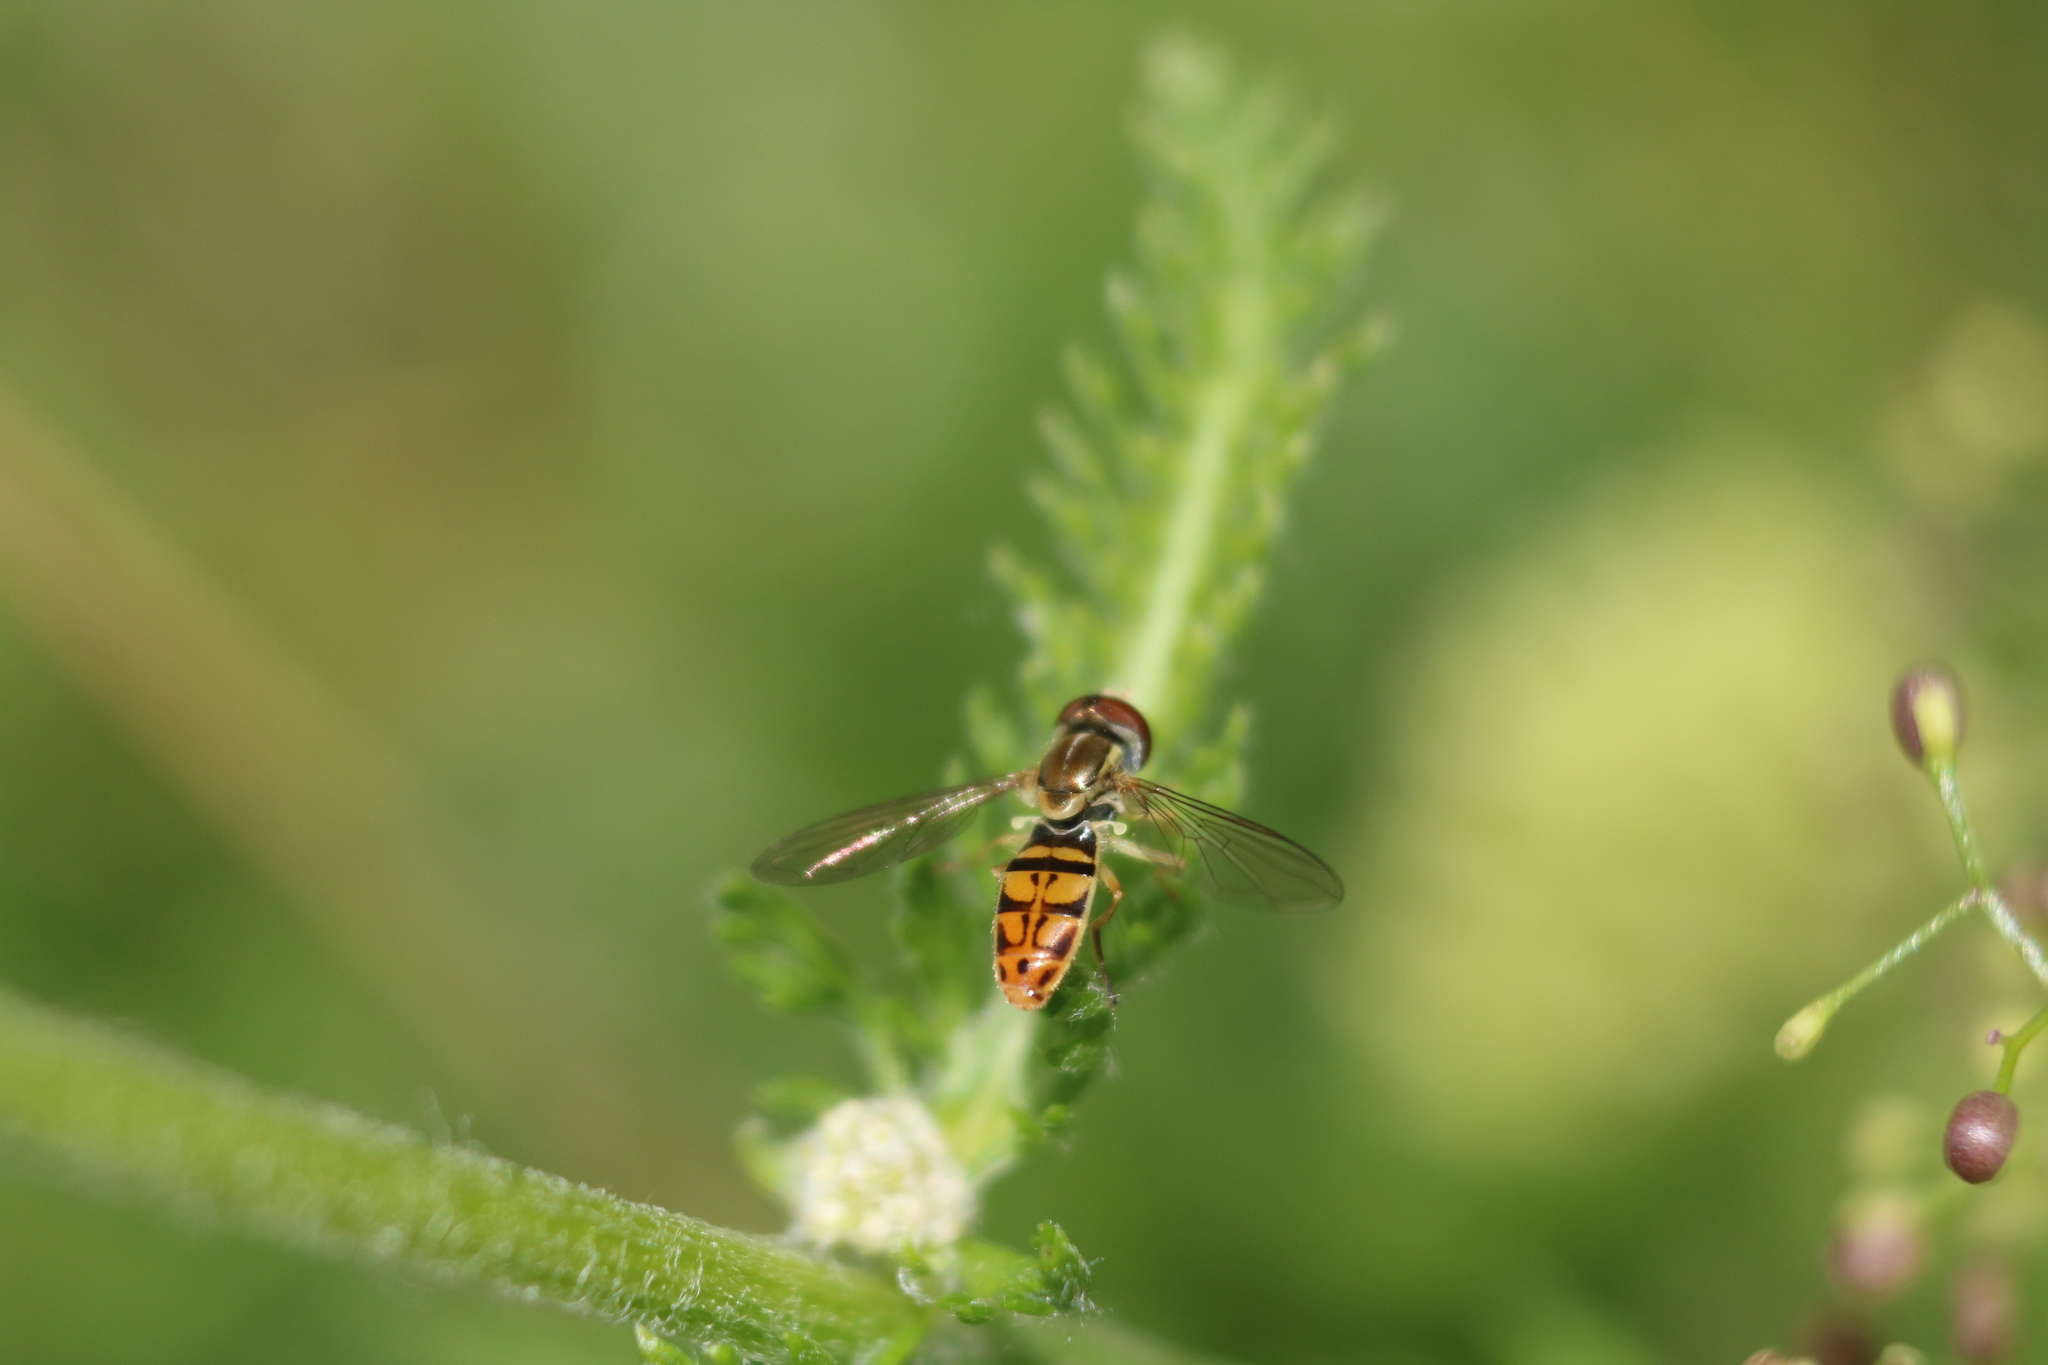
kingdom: Animalia
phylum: Arthropoda
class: Insecta
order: Diptera
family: Syrphidae
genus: Toxomerus
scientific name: Toxomerus marginatus
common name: Syrphid fly
